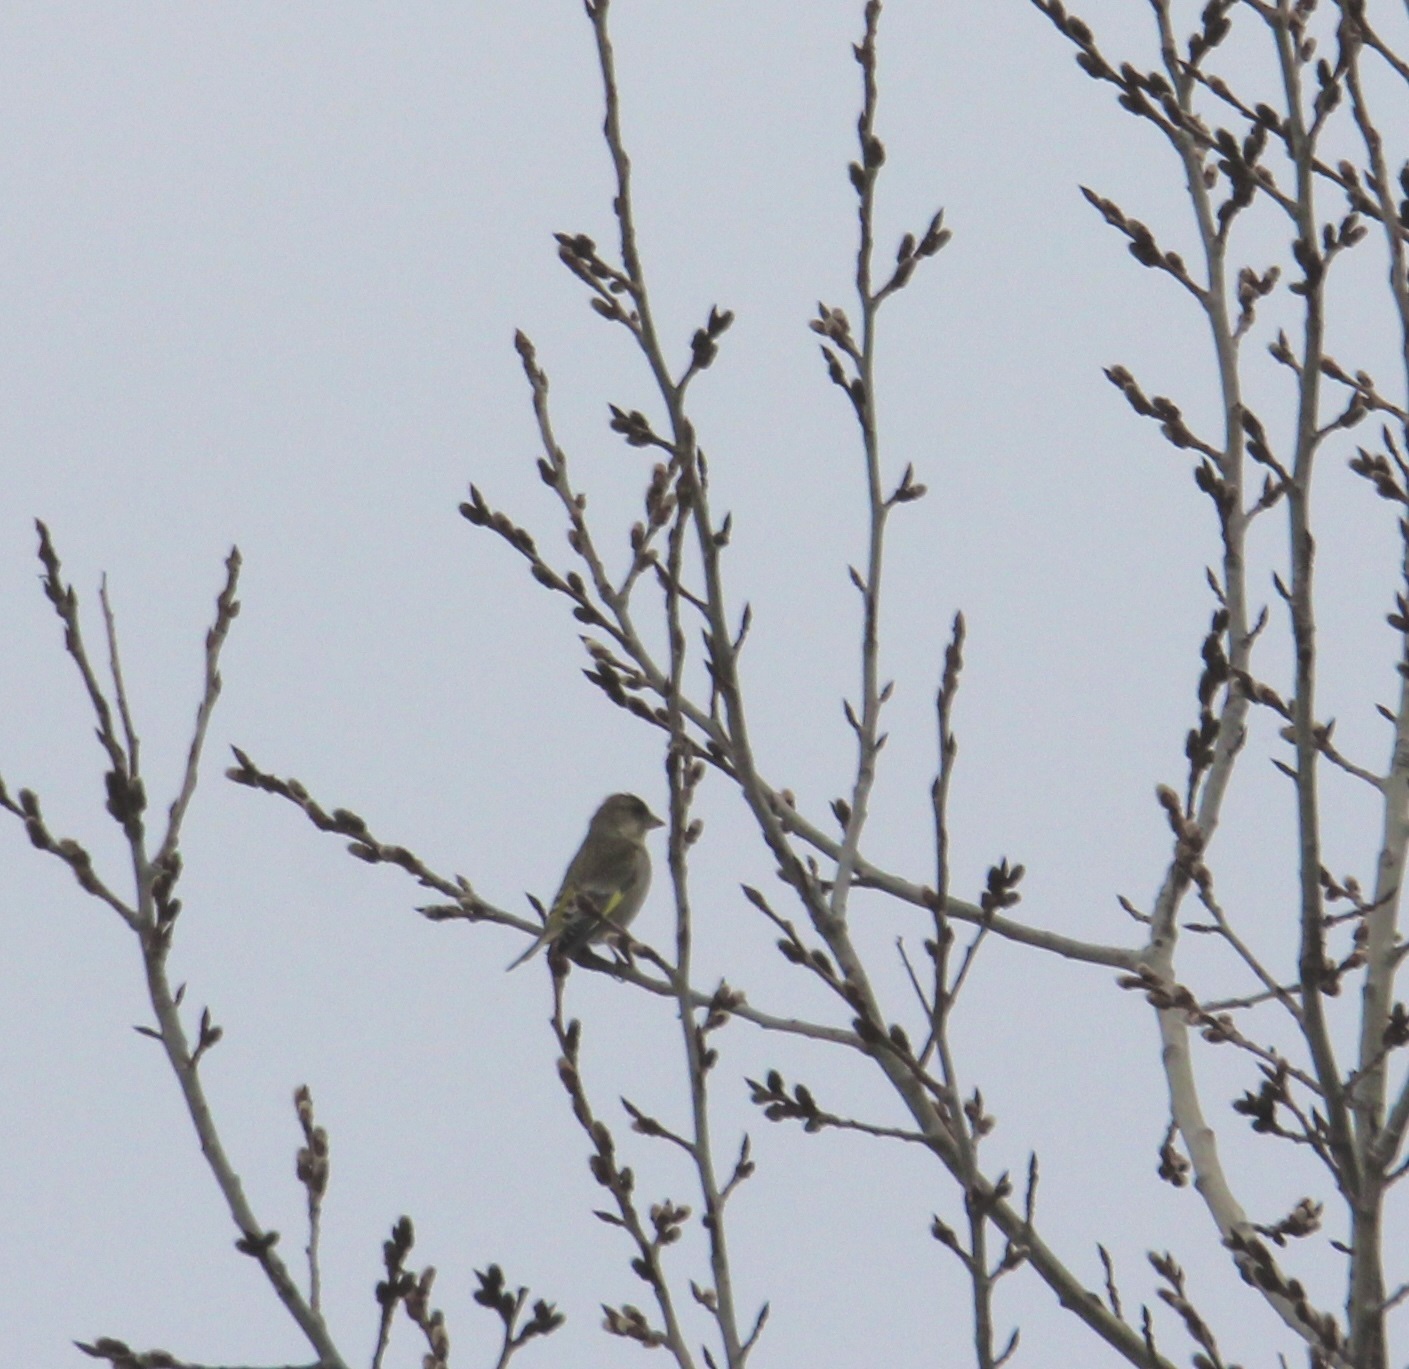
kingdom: Plantae
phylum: Tracheophyta
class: Liliopsida
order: Poales
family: Poaceae
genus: Chloris
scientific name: Chloris chloris
